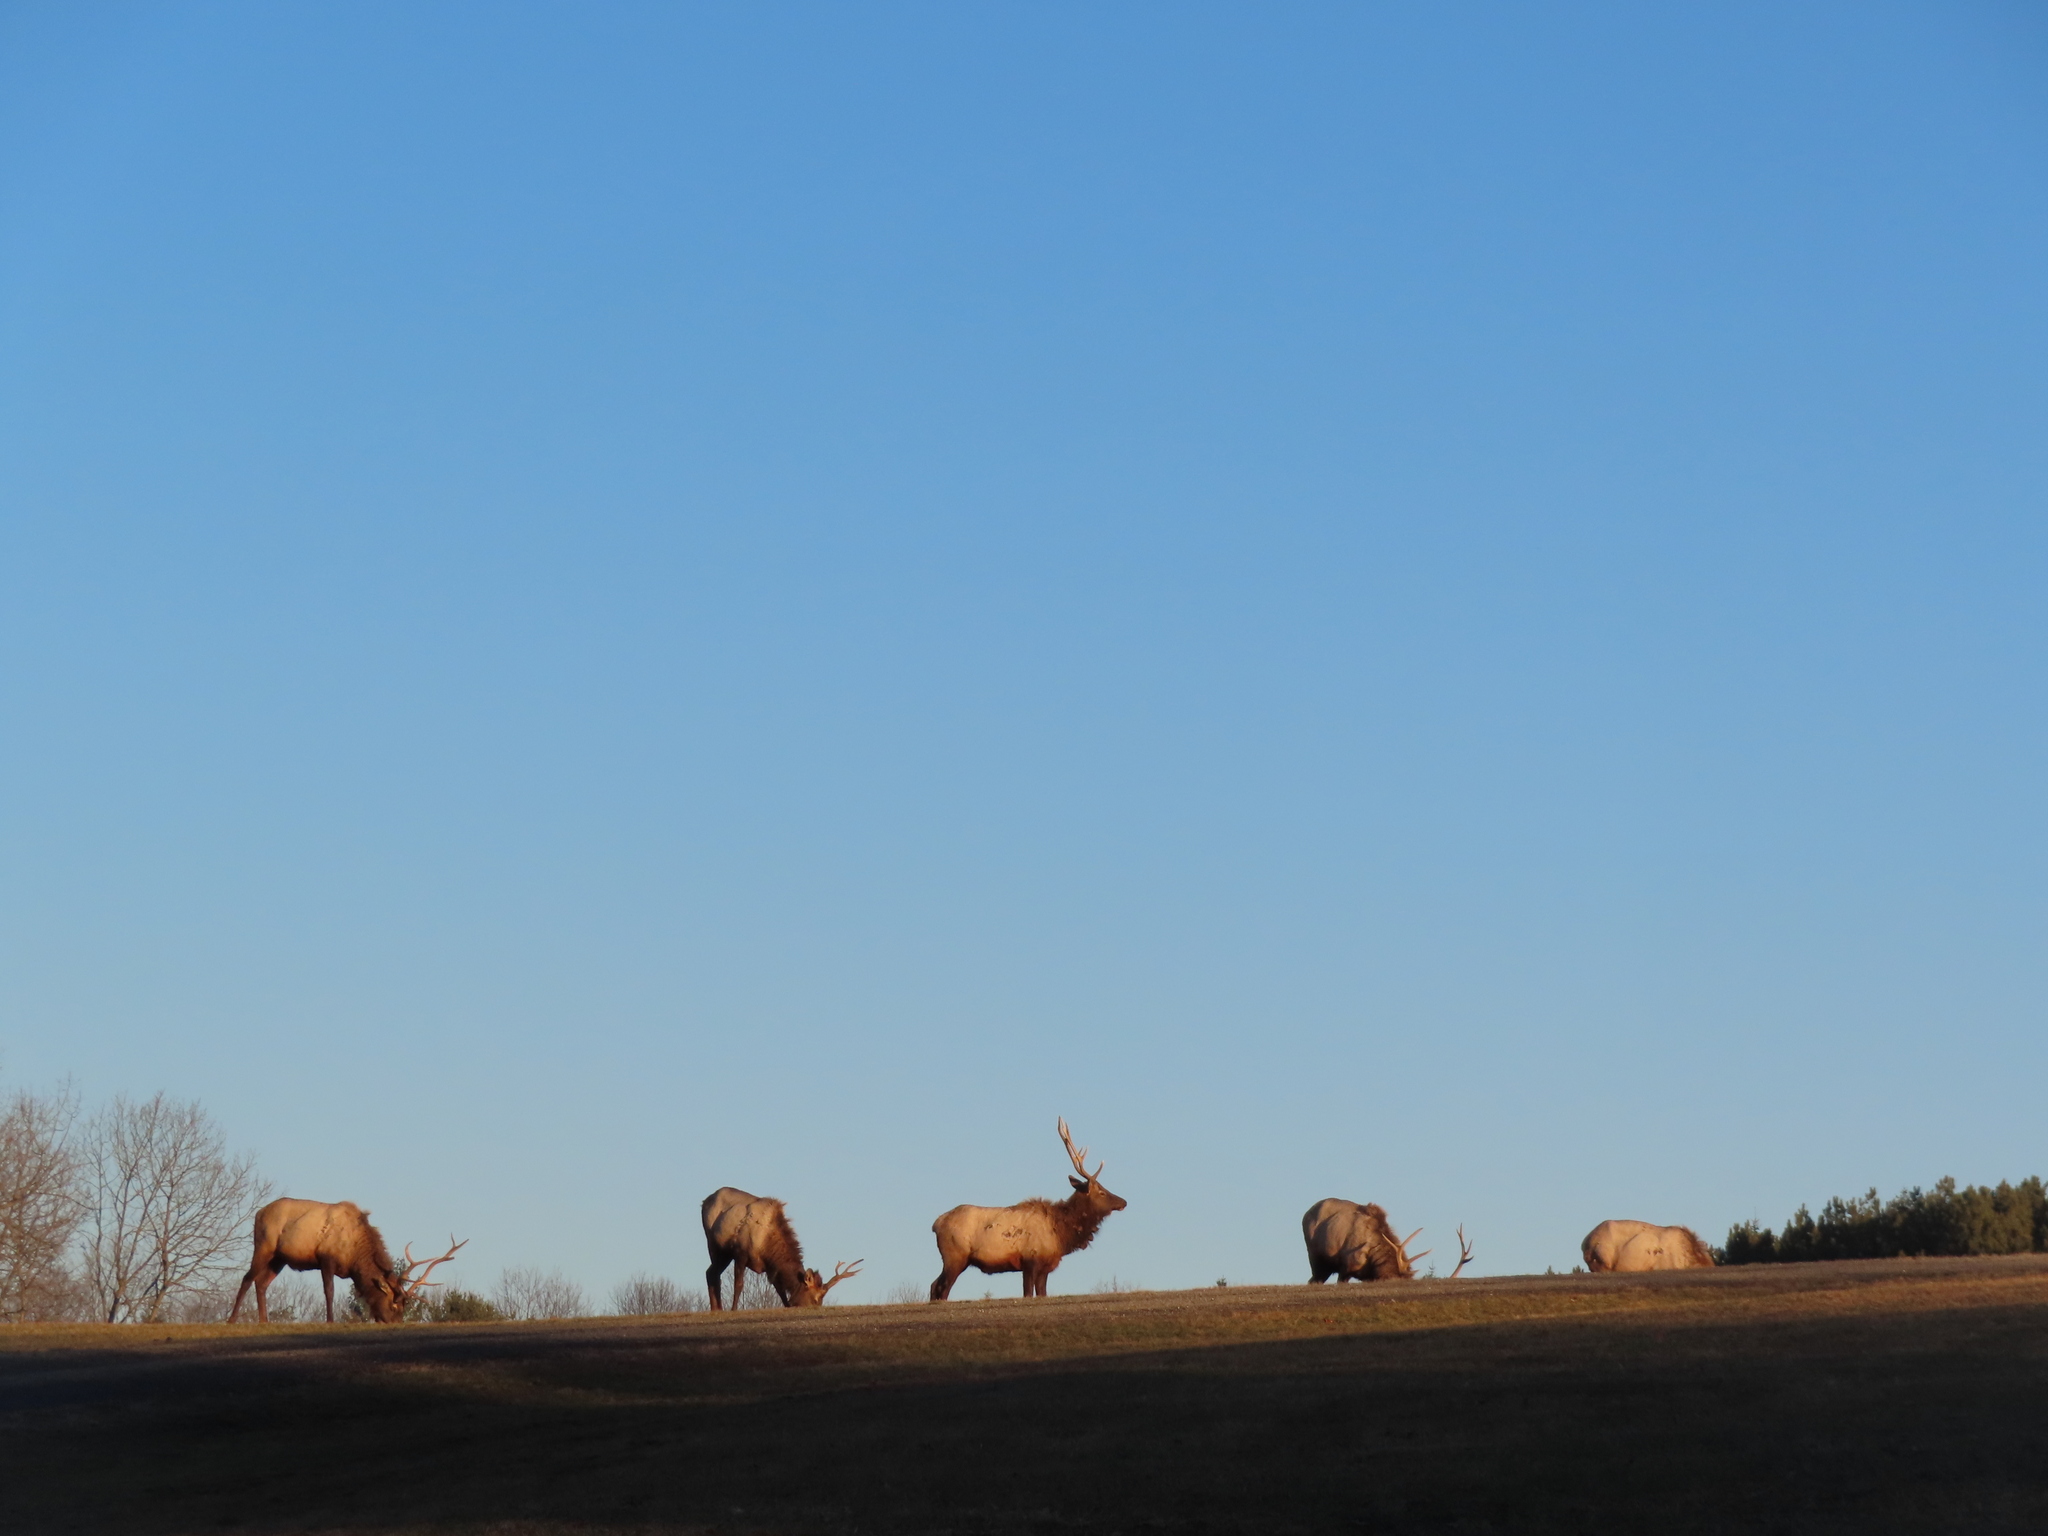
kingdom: Animalia
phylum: Chordata
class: Mammalia
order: Artiodactyla
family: Cervidae
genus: Cervus
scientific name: Cervus elaphus
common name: Red deer
